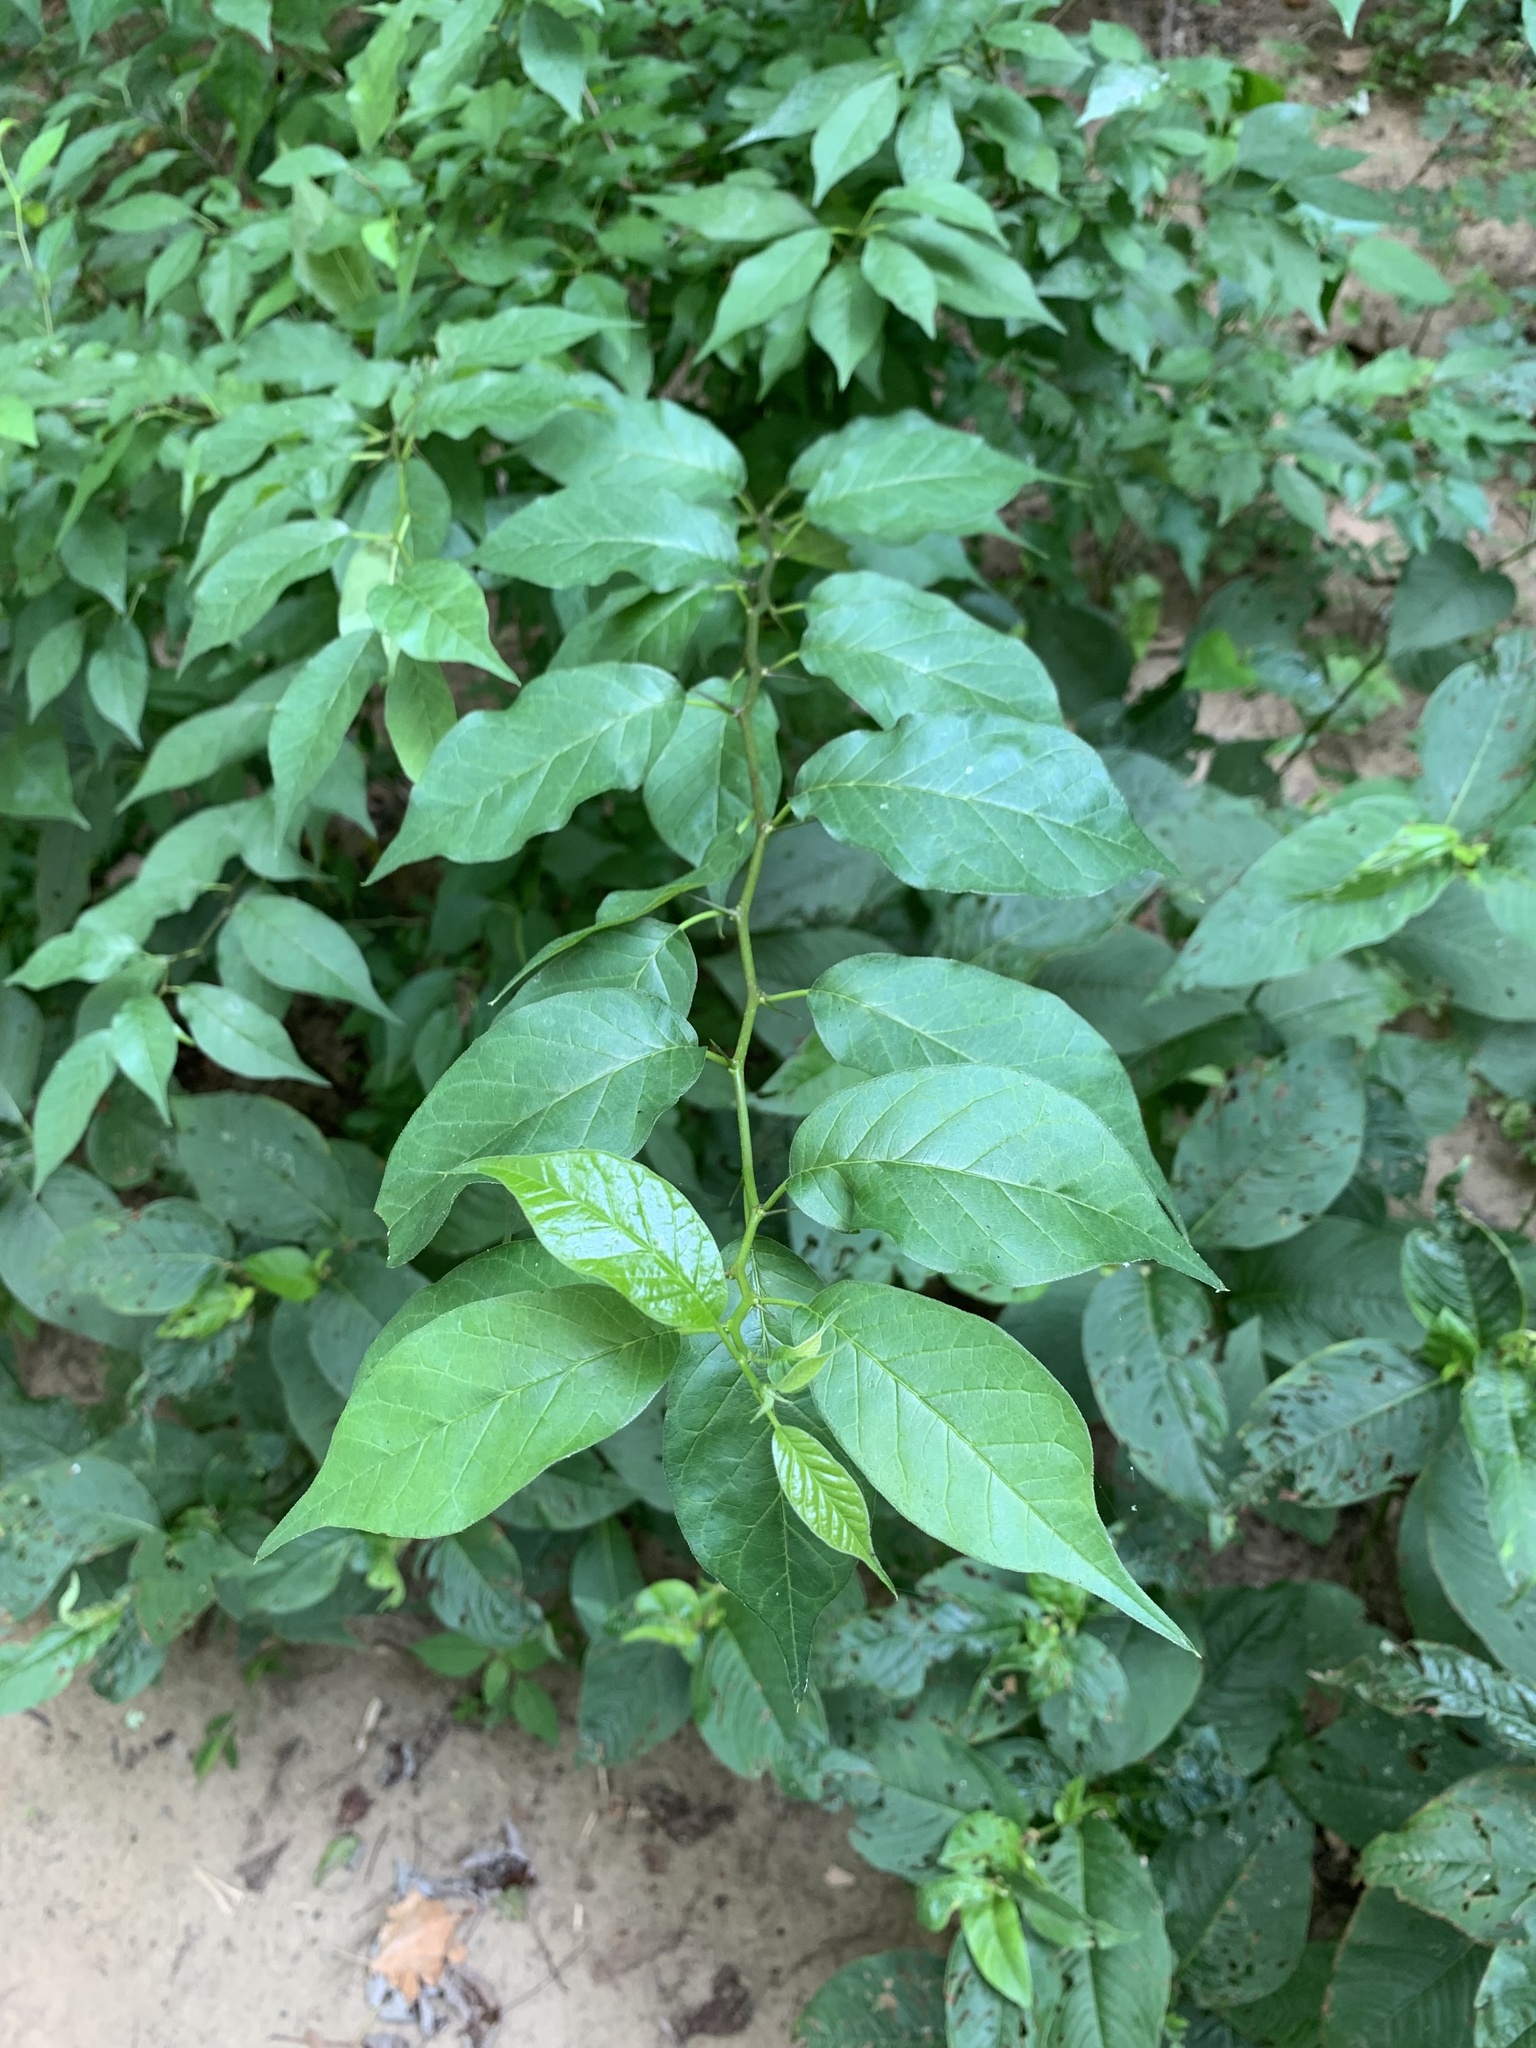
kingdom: Plantae
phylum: Tracheophyta
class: Magnoliopsida
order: Rosales
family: Moraceae
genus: Maclura
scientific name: Maclura pomifera
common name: Osage-orange
